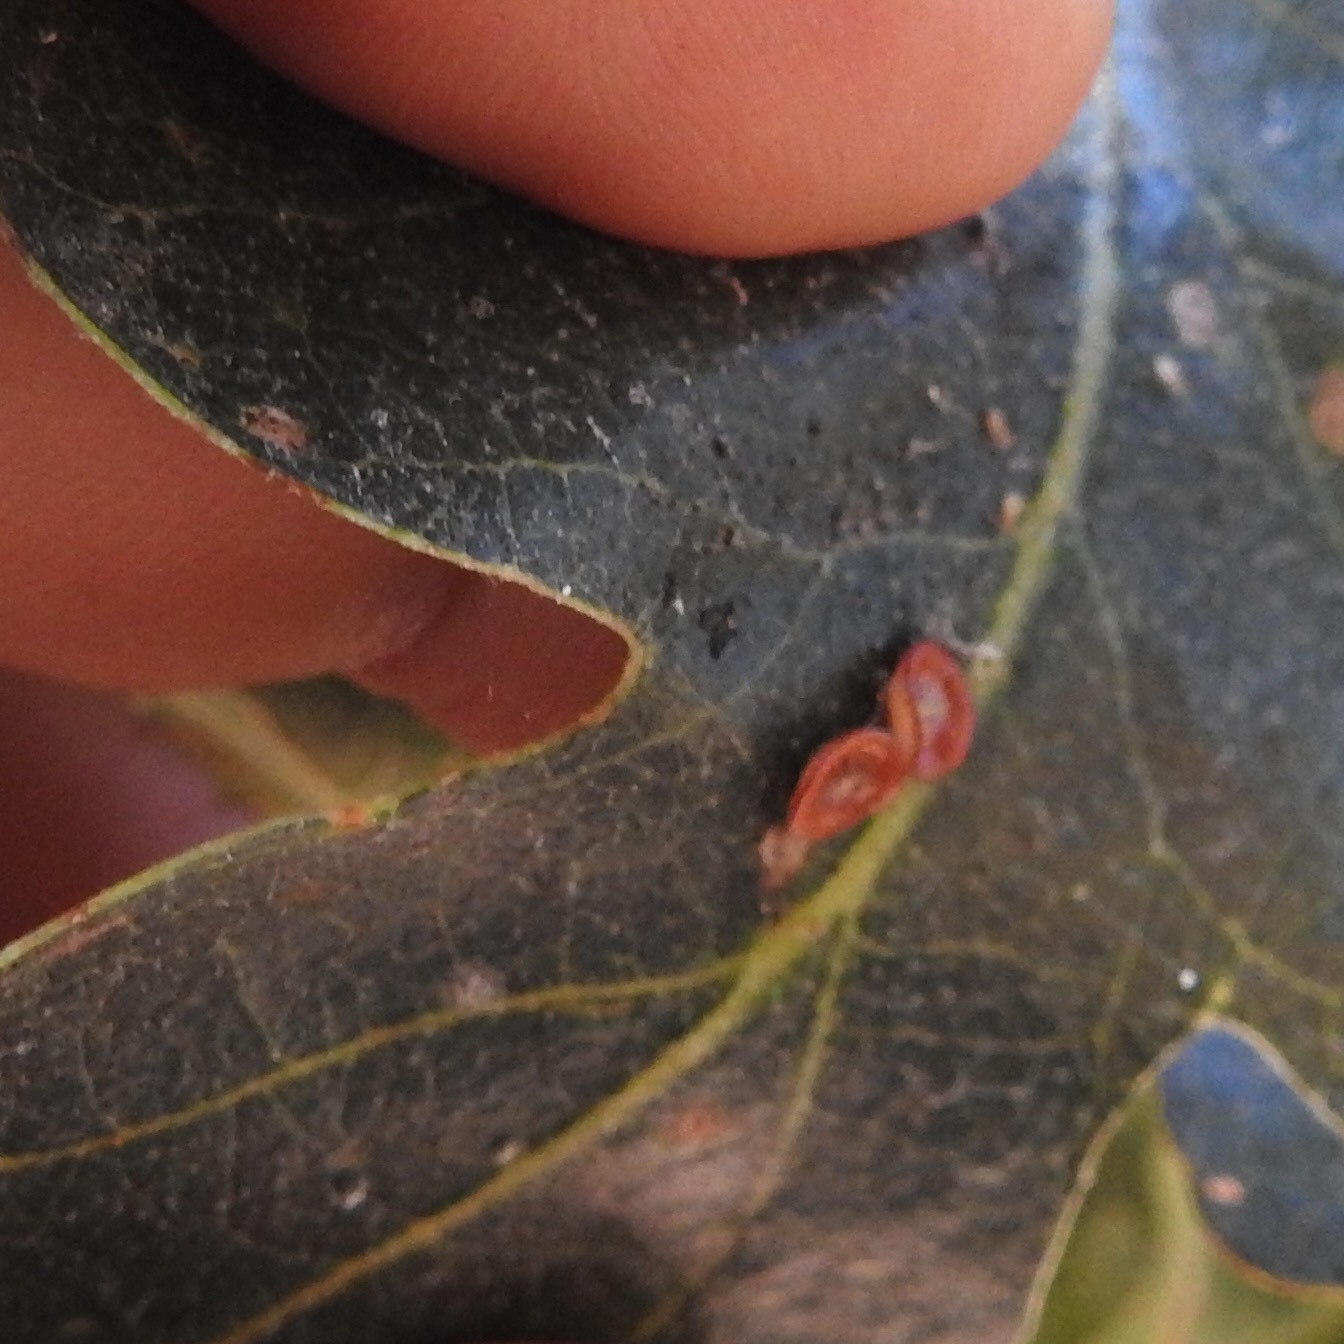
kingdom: Animalia
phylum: Arthropoda
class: Insecta
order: Hymenoptera
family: Cynipidae
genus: Andricus
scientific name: Andricus
